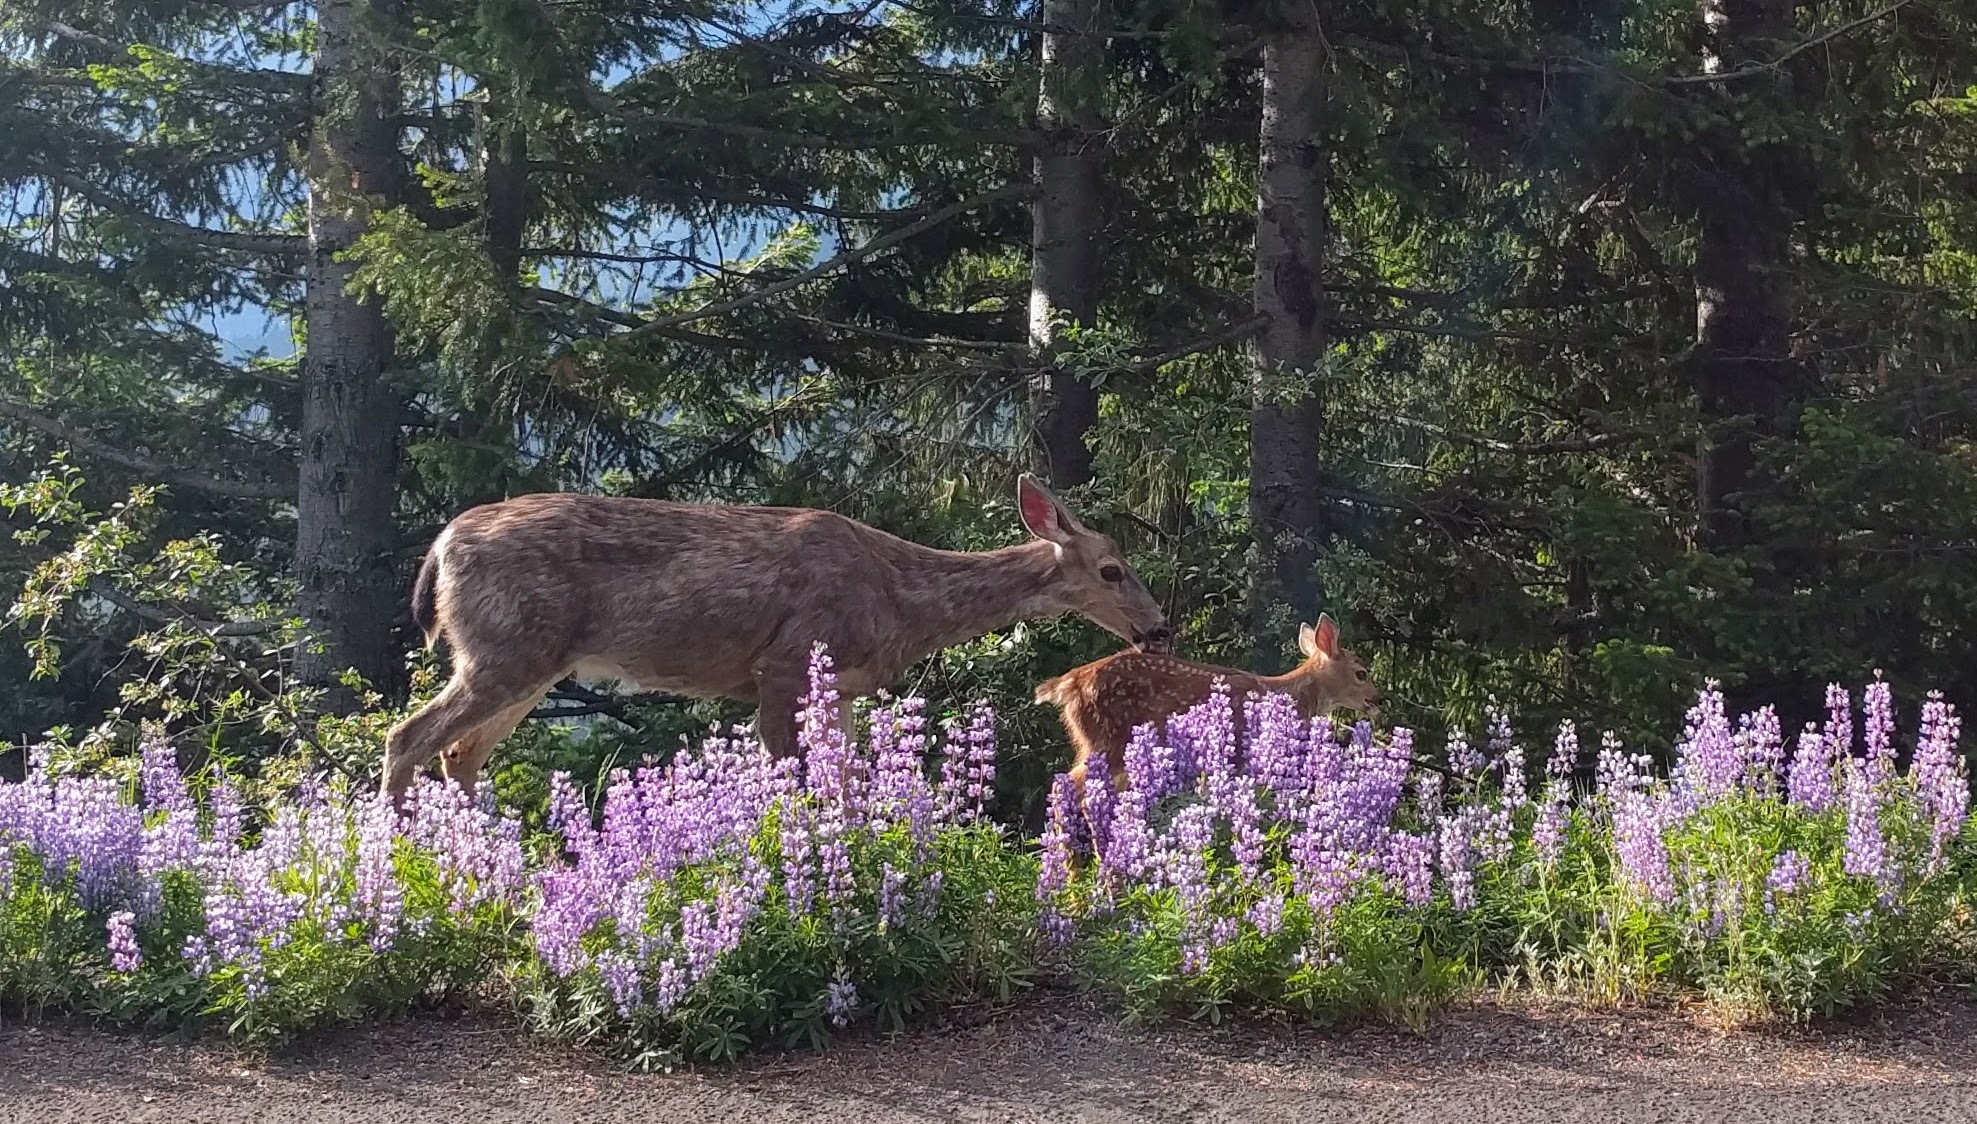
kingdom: Animalia
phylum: Chordata
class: Mammalia
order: Artiodactyla
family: Cervidae
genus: Odocoileus
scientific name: Odocoileus hemionus
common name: Mule deer
